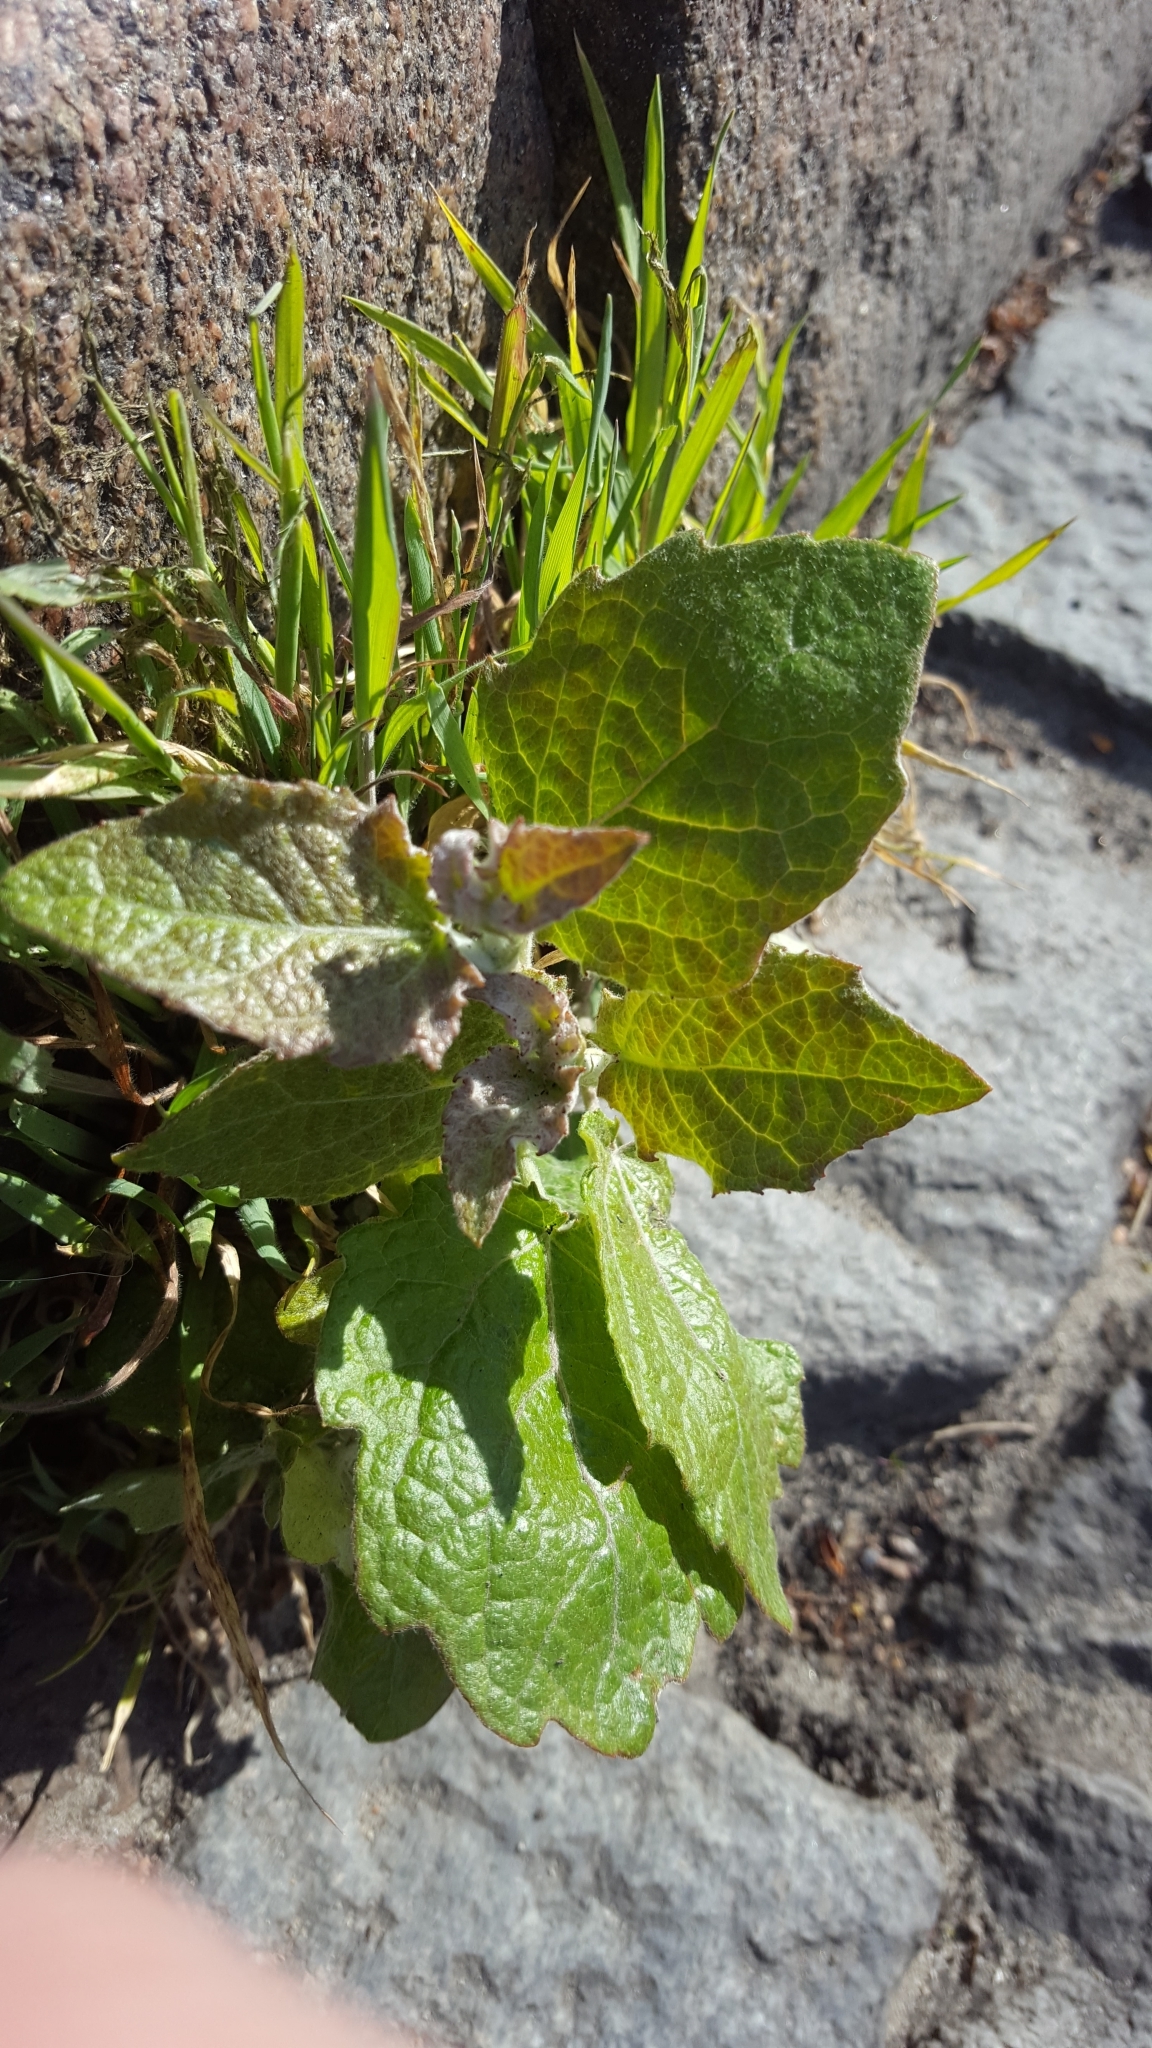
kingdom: Plantae
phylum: Tracheophyta
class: Magnoliopsida
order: Malpighiales
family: Salicaceae
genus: Populus
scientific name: Populus alba
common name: White poplar
